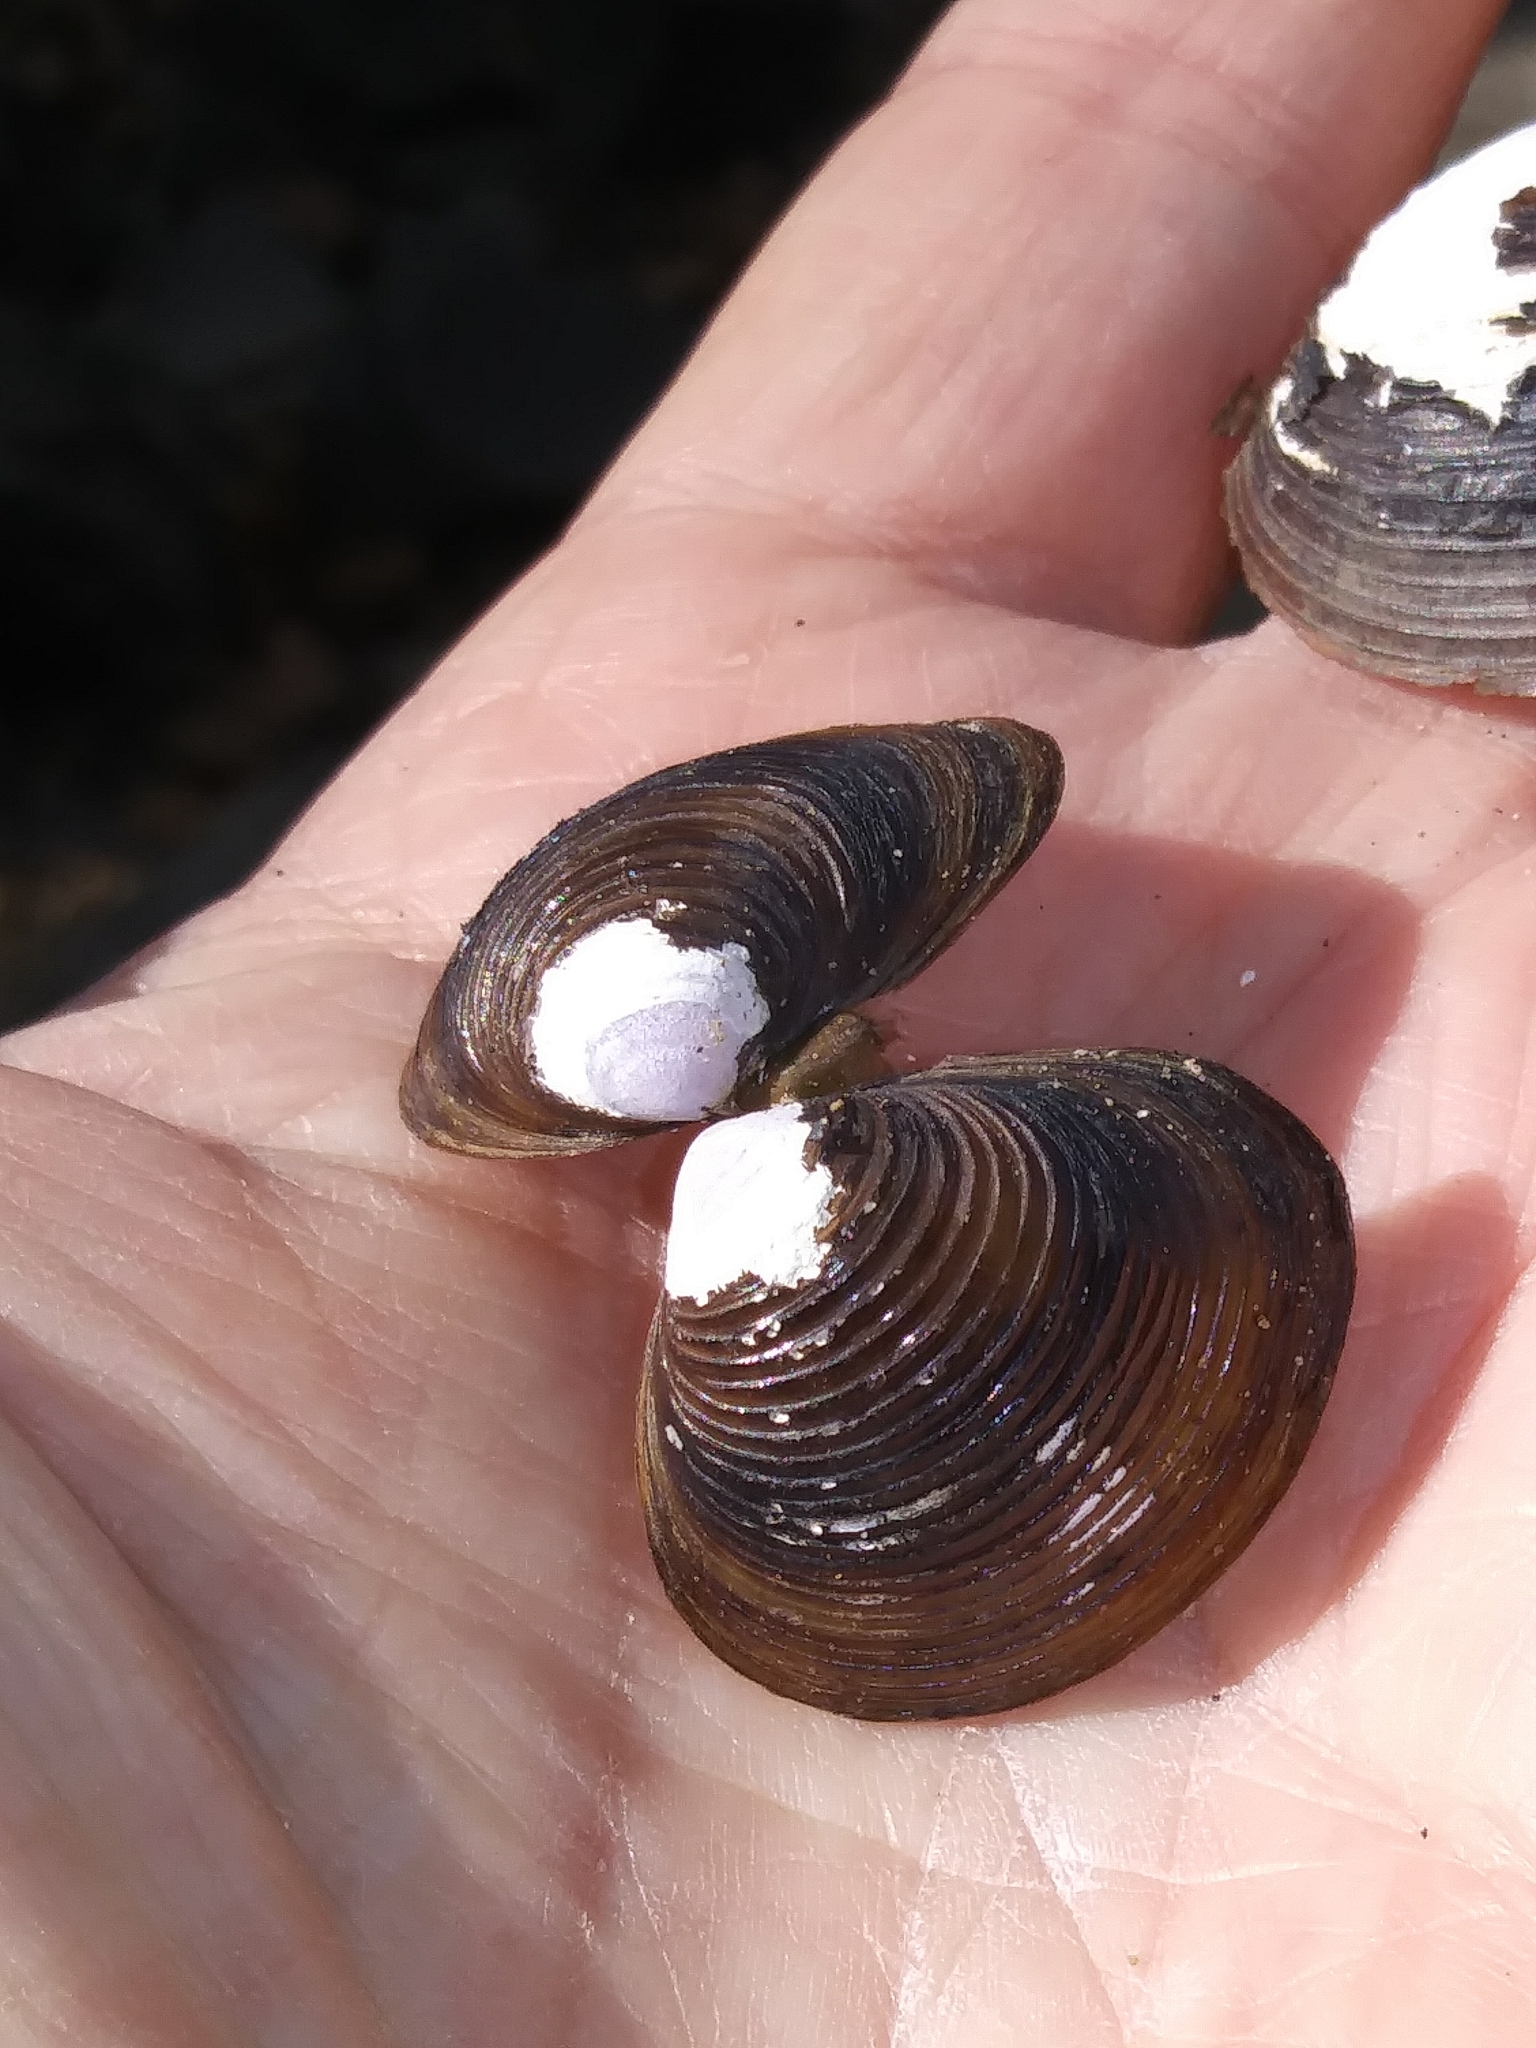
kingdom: Animalia
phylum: Mollusca
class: Bivalvia
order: Venerida
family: Cyrenidae
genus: Corbicula
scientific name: Corbicula fluminea
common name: Asian clam
